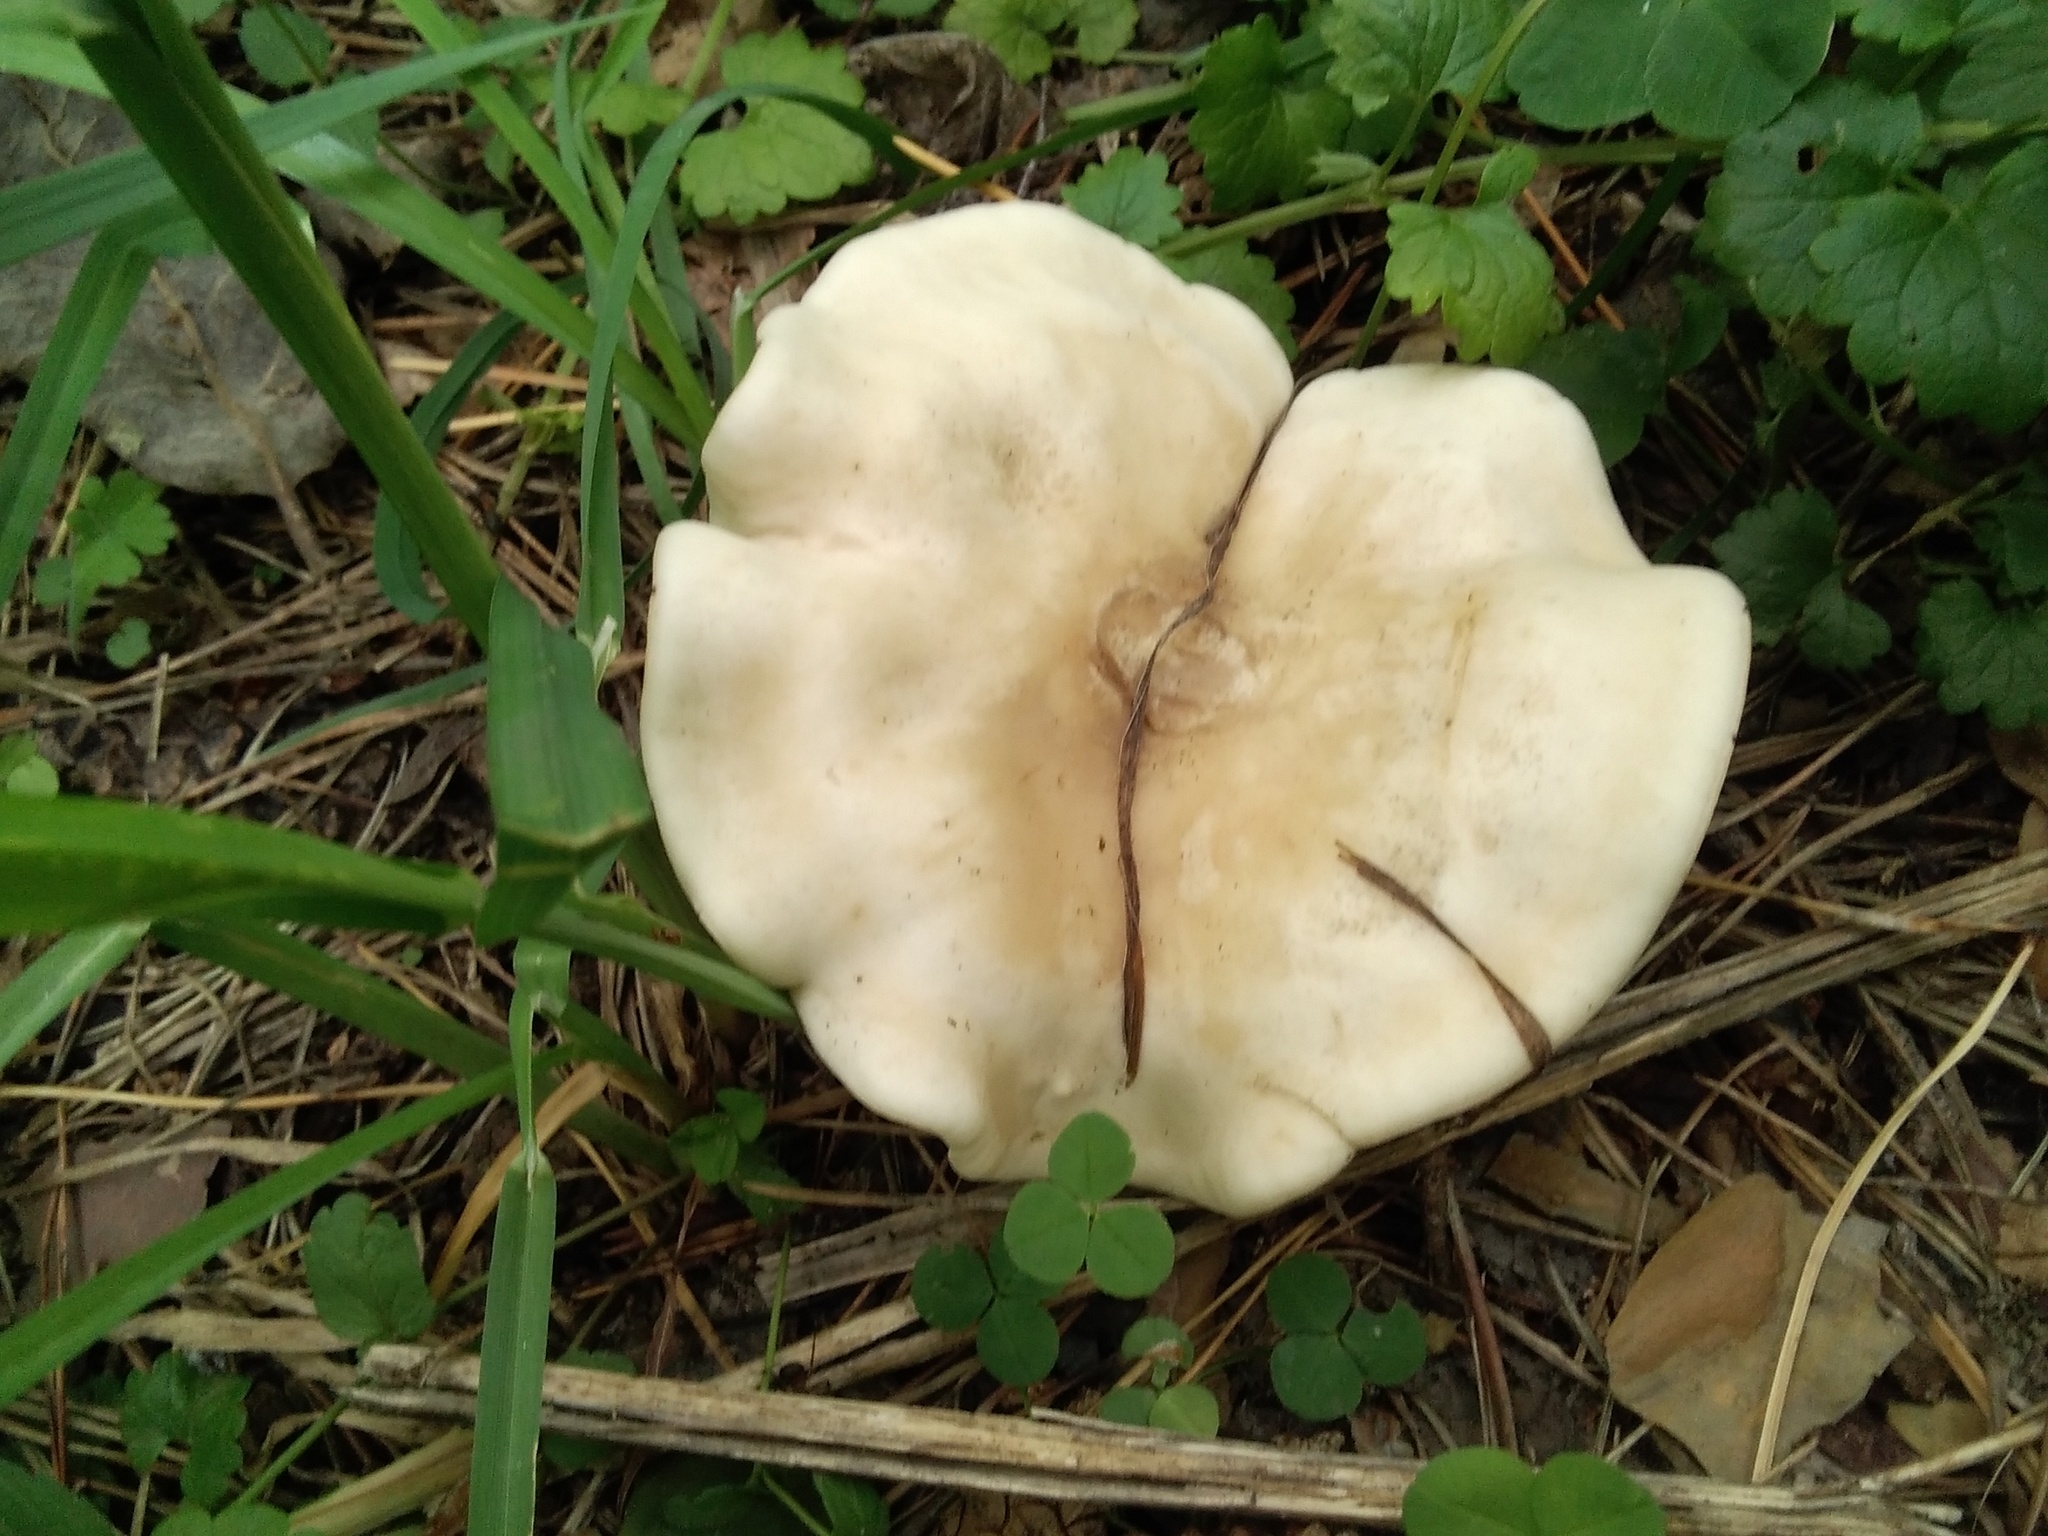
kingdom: Fungi
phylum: Basidiomycota
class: Agaricomycetes
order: Agaricales
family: Lyophyllaceae
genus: Calocybe
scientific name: Calocybe gambosa
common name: St. george's mushroom
